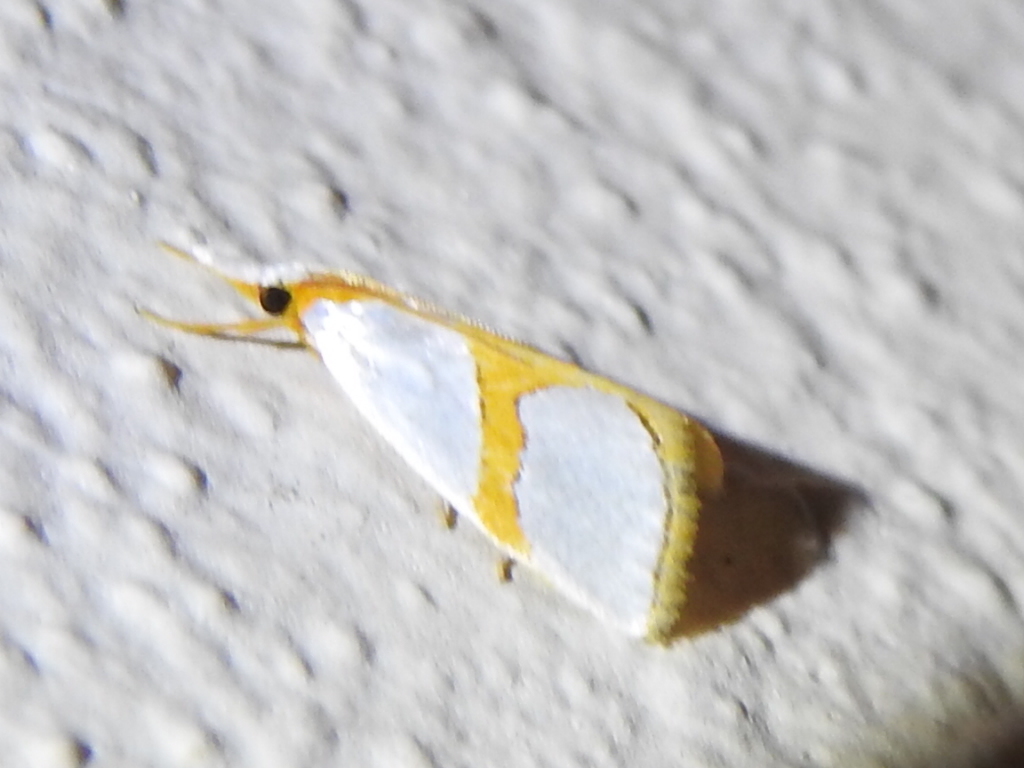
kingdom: Animalia
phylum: Arthropoda
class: Insecta
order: Lepidoptera
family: Crambidae
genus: Argyria
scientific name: Argyria auratella
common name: Curve-lined argyria moth
